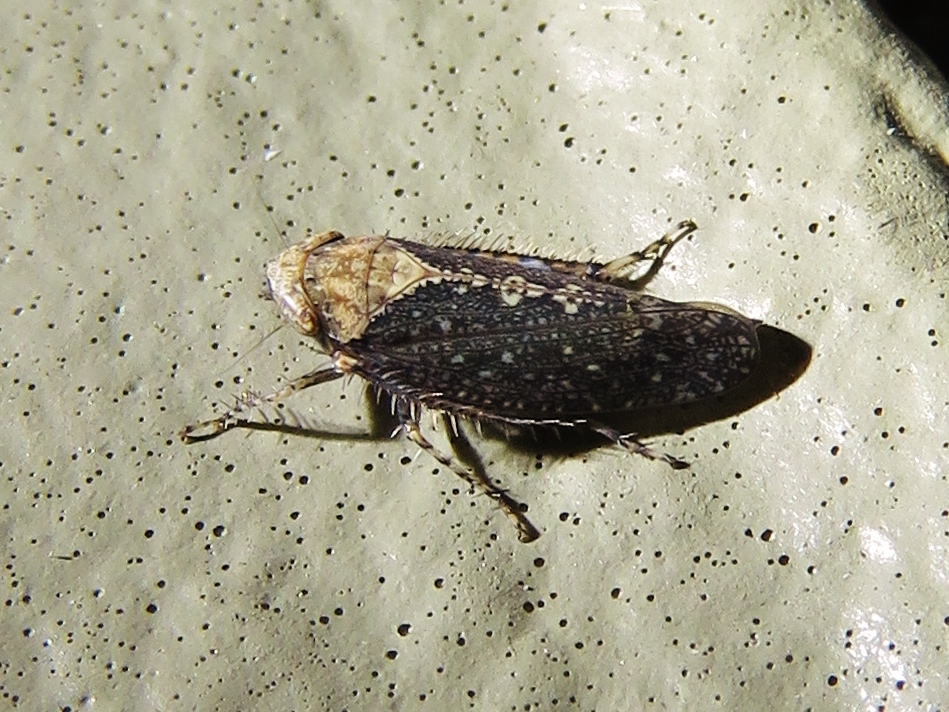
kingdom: Animalia
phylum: Arthropoda
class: Insecta
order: Hemiptera
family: Cicadellidae
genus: Excultanus
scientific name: Excultanus excultus
